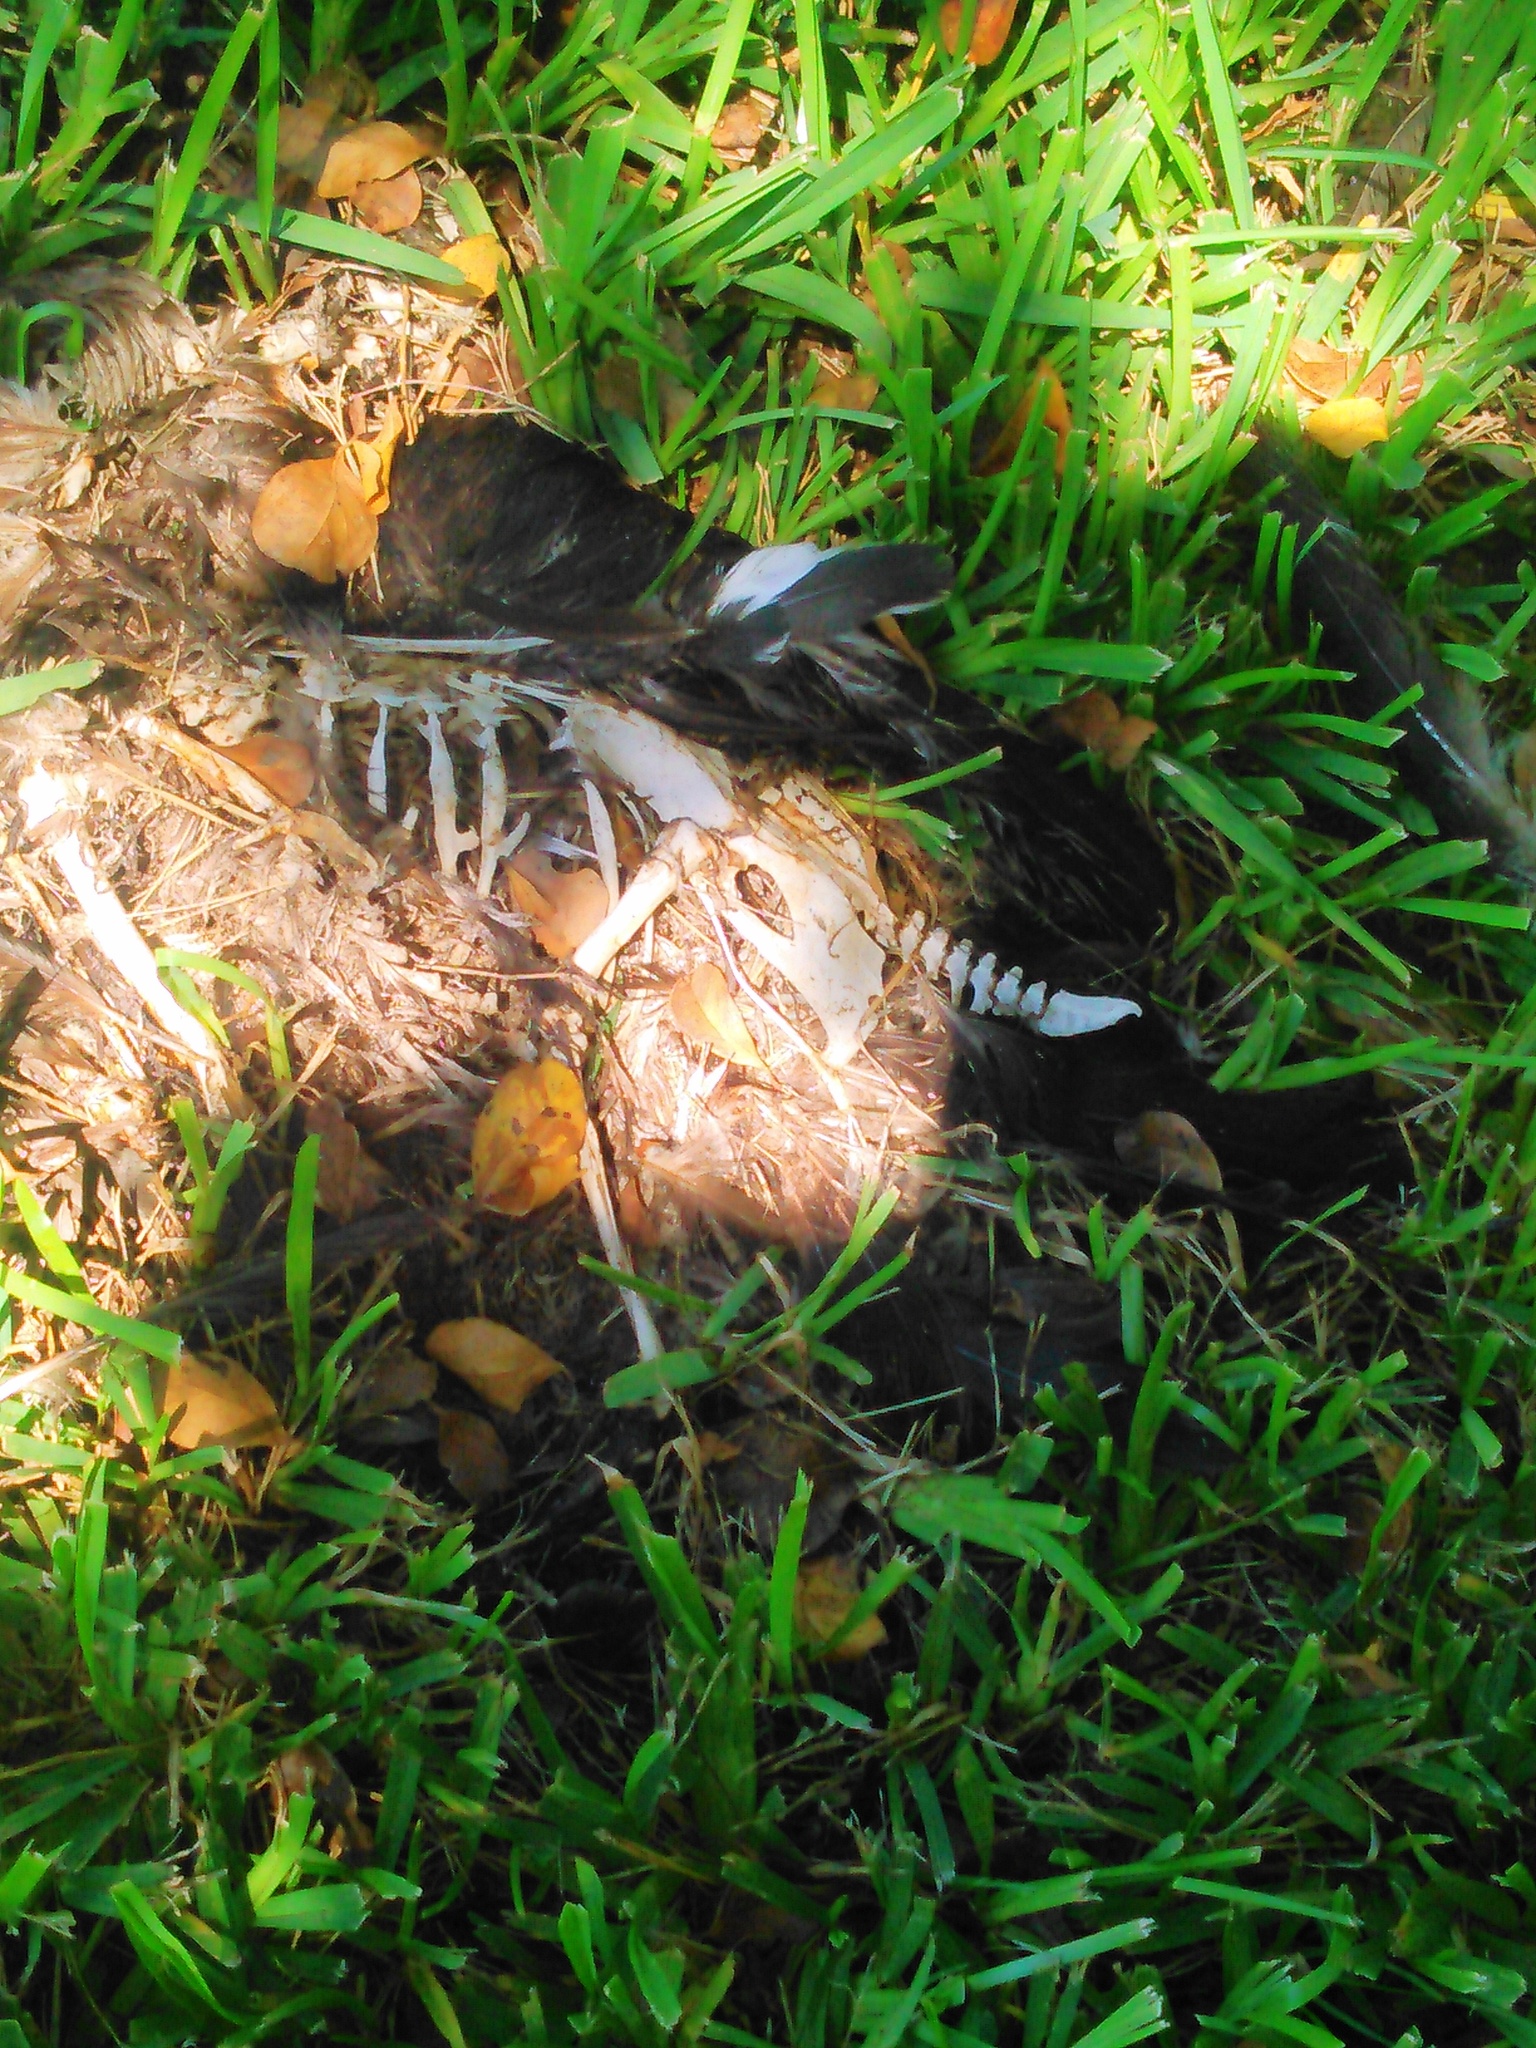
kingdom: Animalia
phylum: Chordata
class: Aves
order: Anseriformes
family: Anatidae
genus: Cairina
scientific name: Cairina moschata
